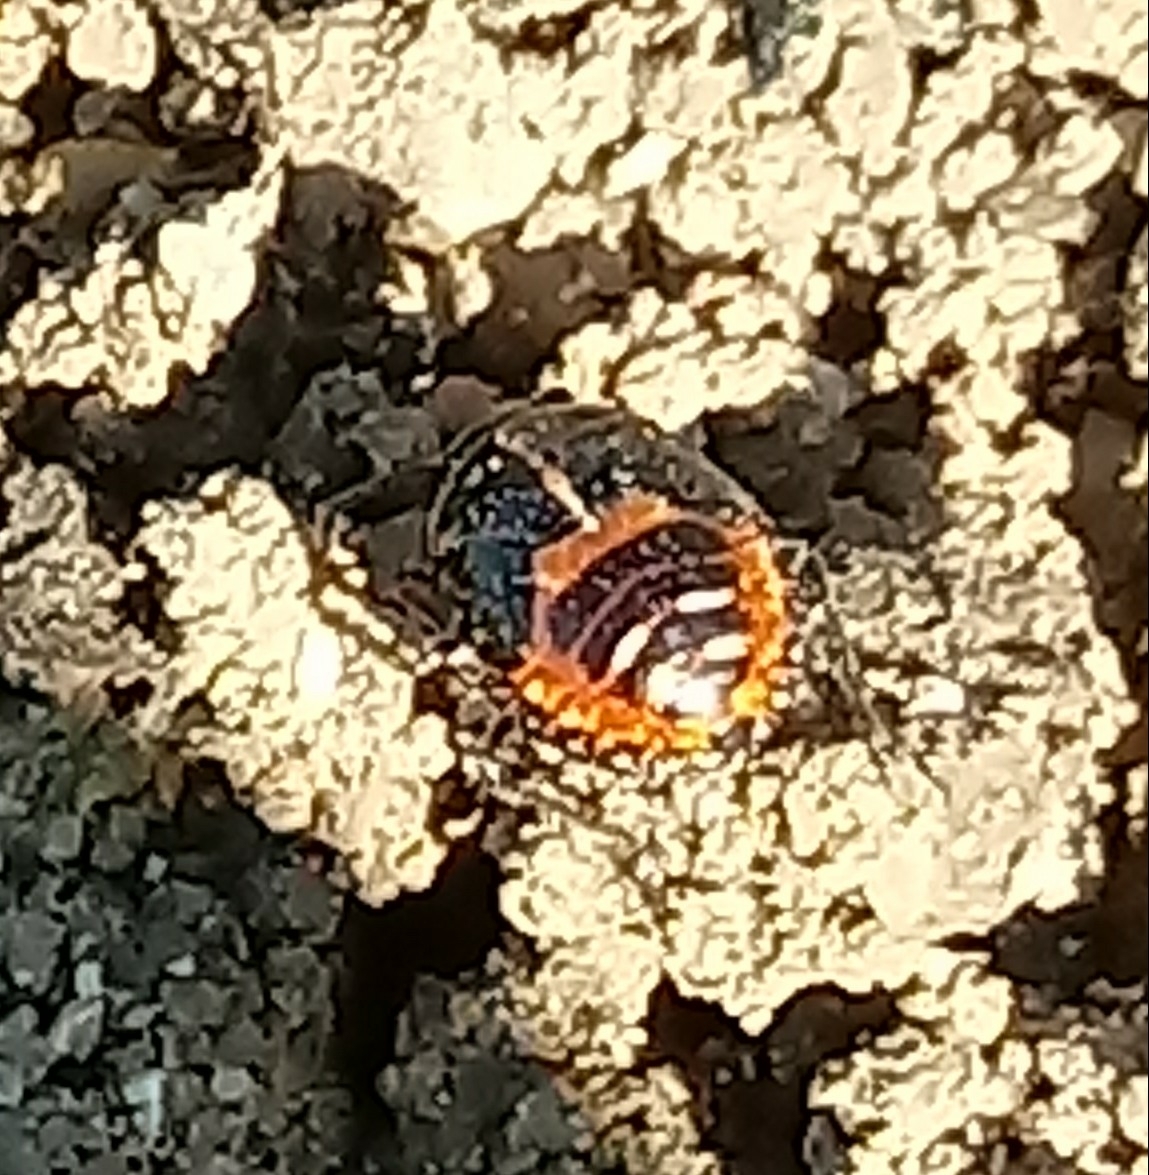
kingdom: Animalia
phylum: Arthropoda
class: Insecta
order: Hemiptera
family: Pentatomidae
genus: Bagrada
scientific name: Bagrada hilaris
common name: Bagrada bug
